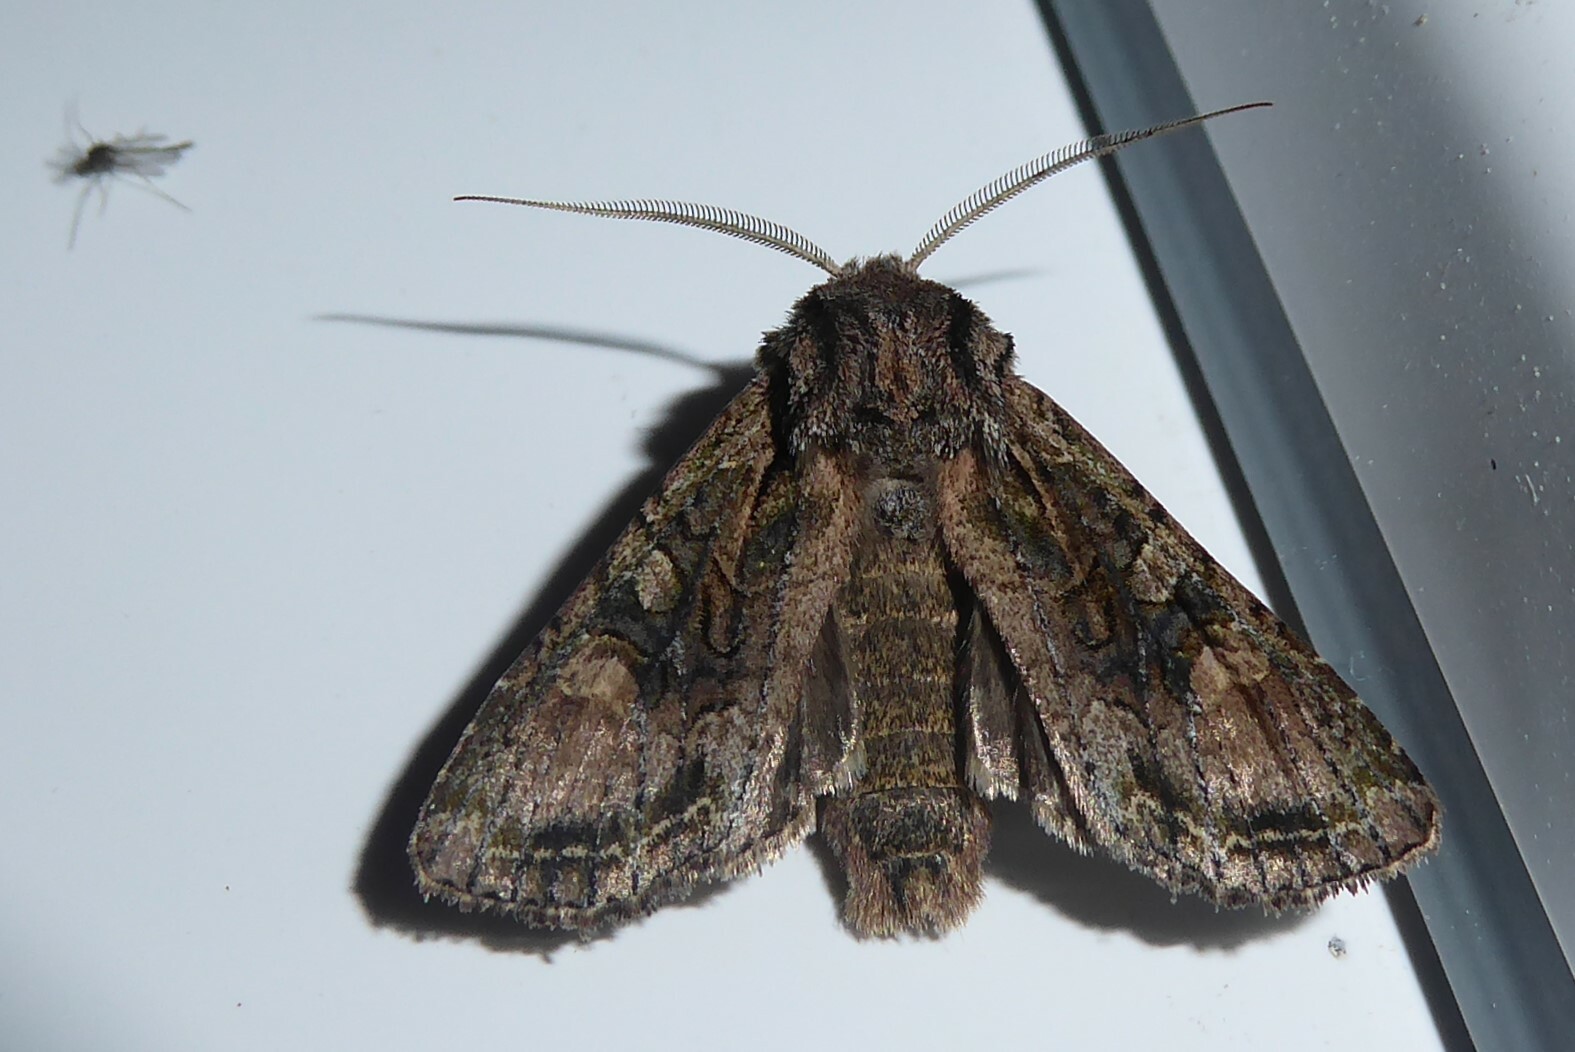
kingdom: Animalia
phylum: Arthropoda
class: Insecta
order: Lepidoptera
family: Noctuidae
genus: Ichneutica
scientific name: Ichneutica mutans
